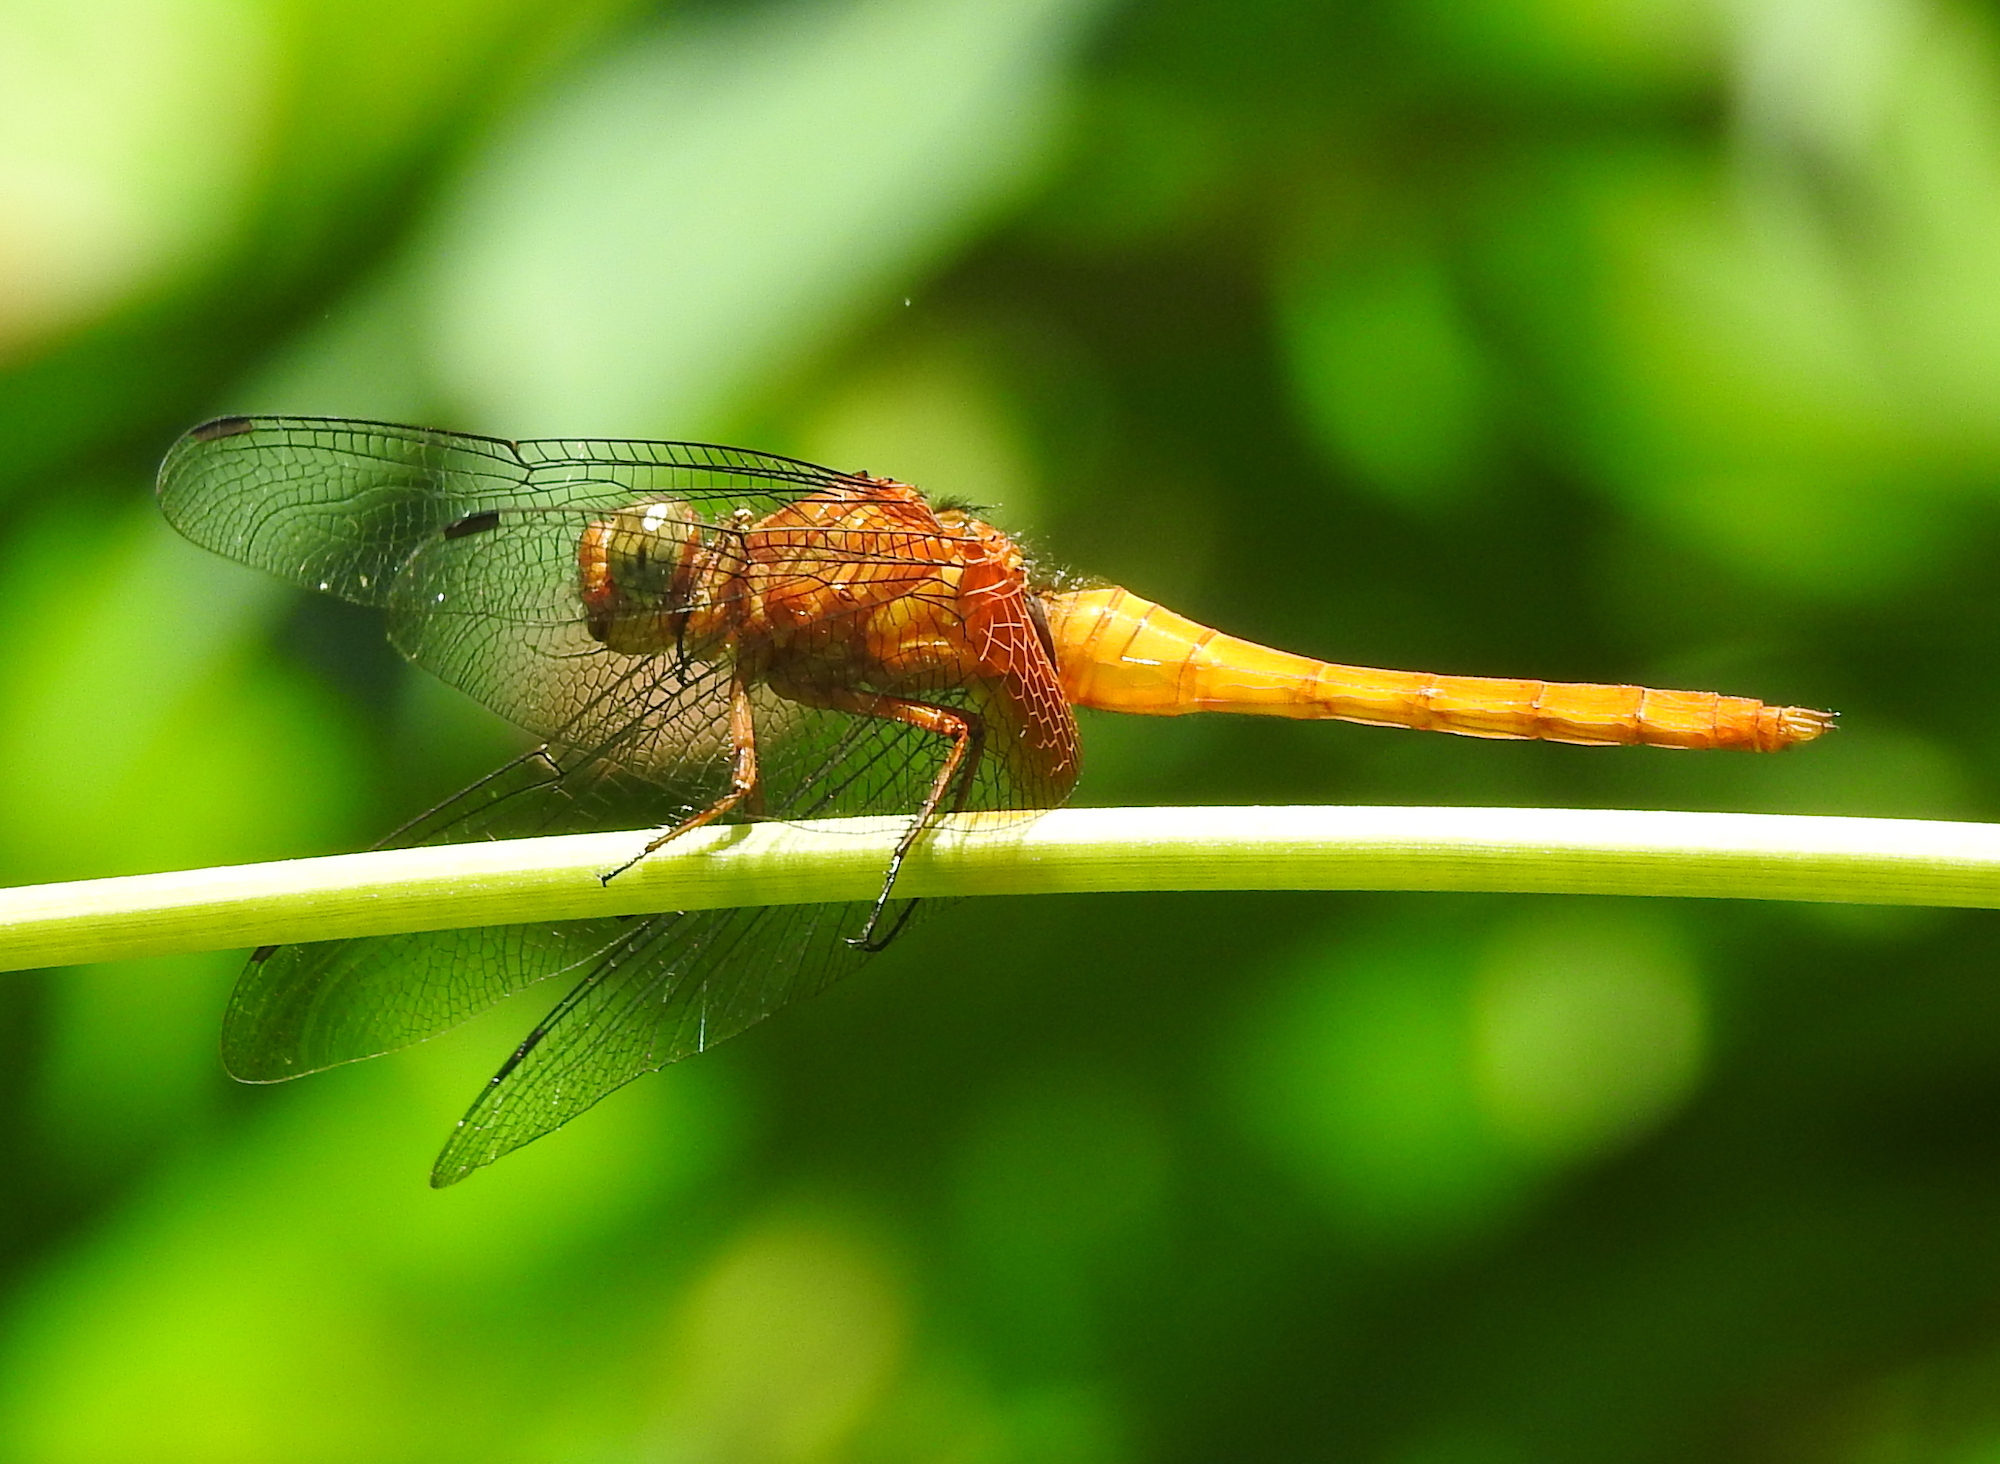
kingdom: Animalia
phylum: Arthropoda
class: Insecta
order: Odonata
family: Libellulidae
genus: Orthetrum
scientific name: Orthetrum testaceum
